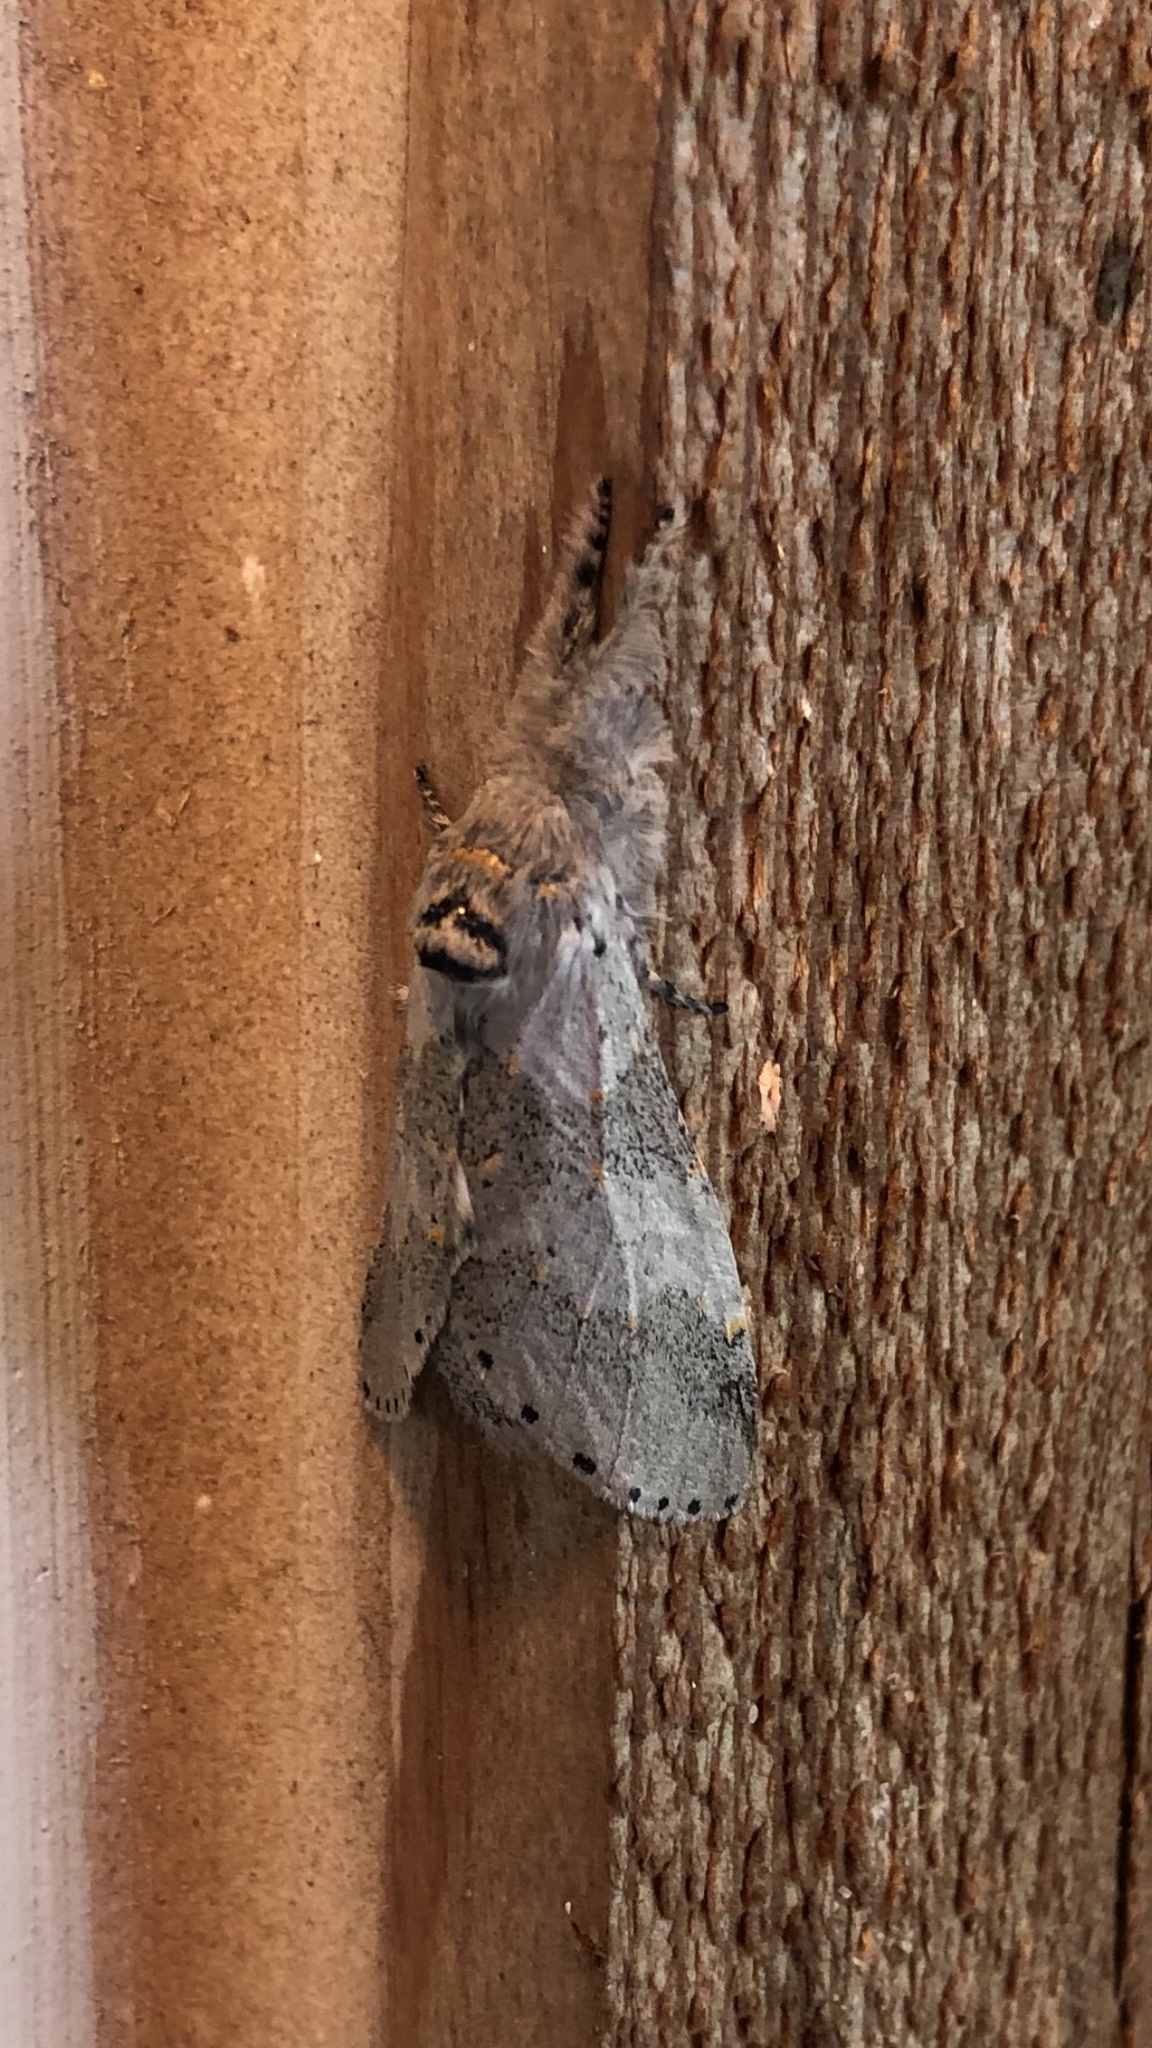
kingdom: Animalia
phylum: Arthropoda
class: Insecta
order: Lepidoptera
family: Notodontidae
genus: Furcula
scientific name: Furcula cinerea
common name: Gray furcula
